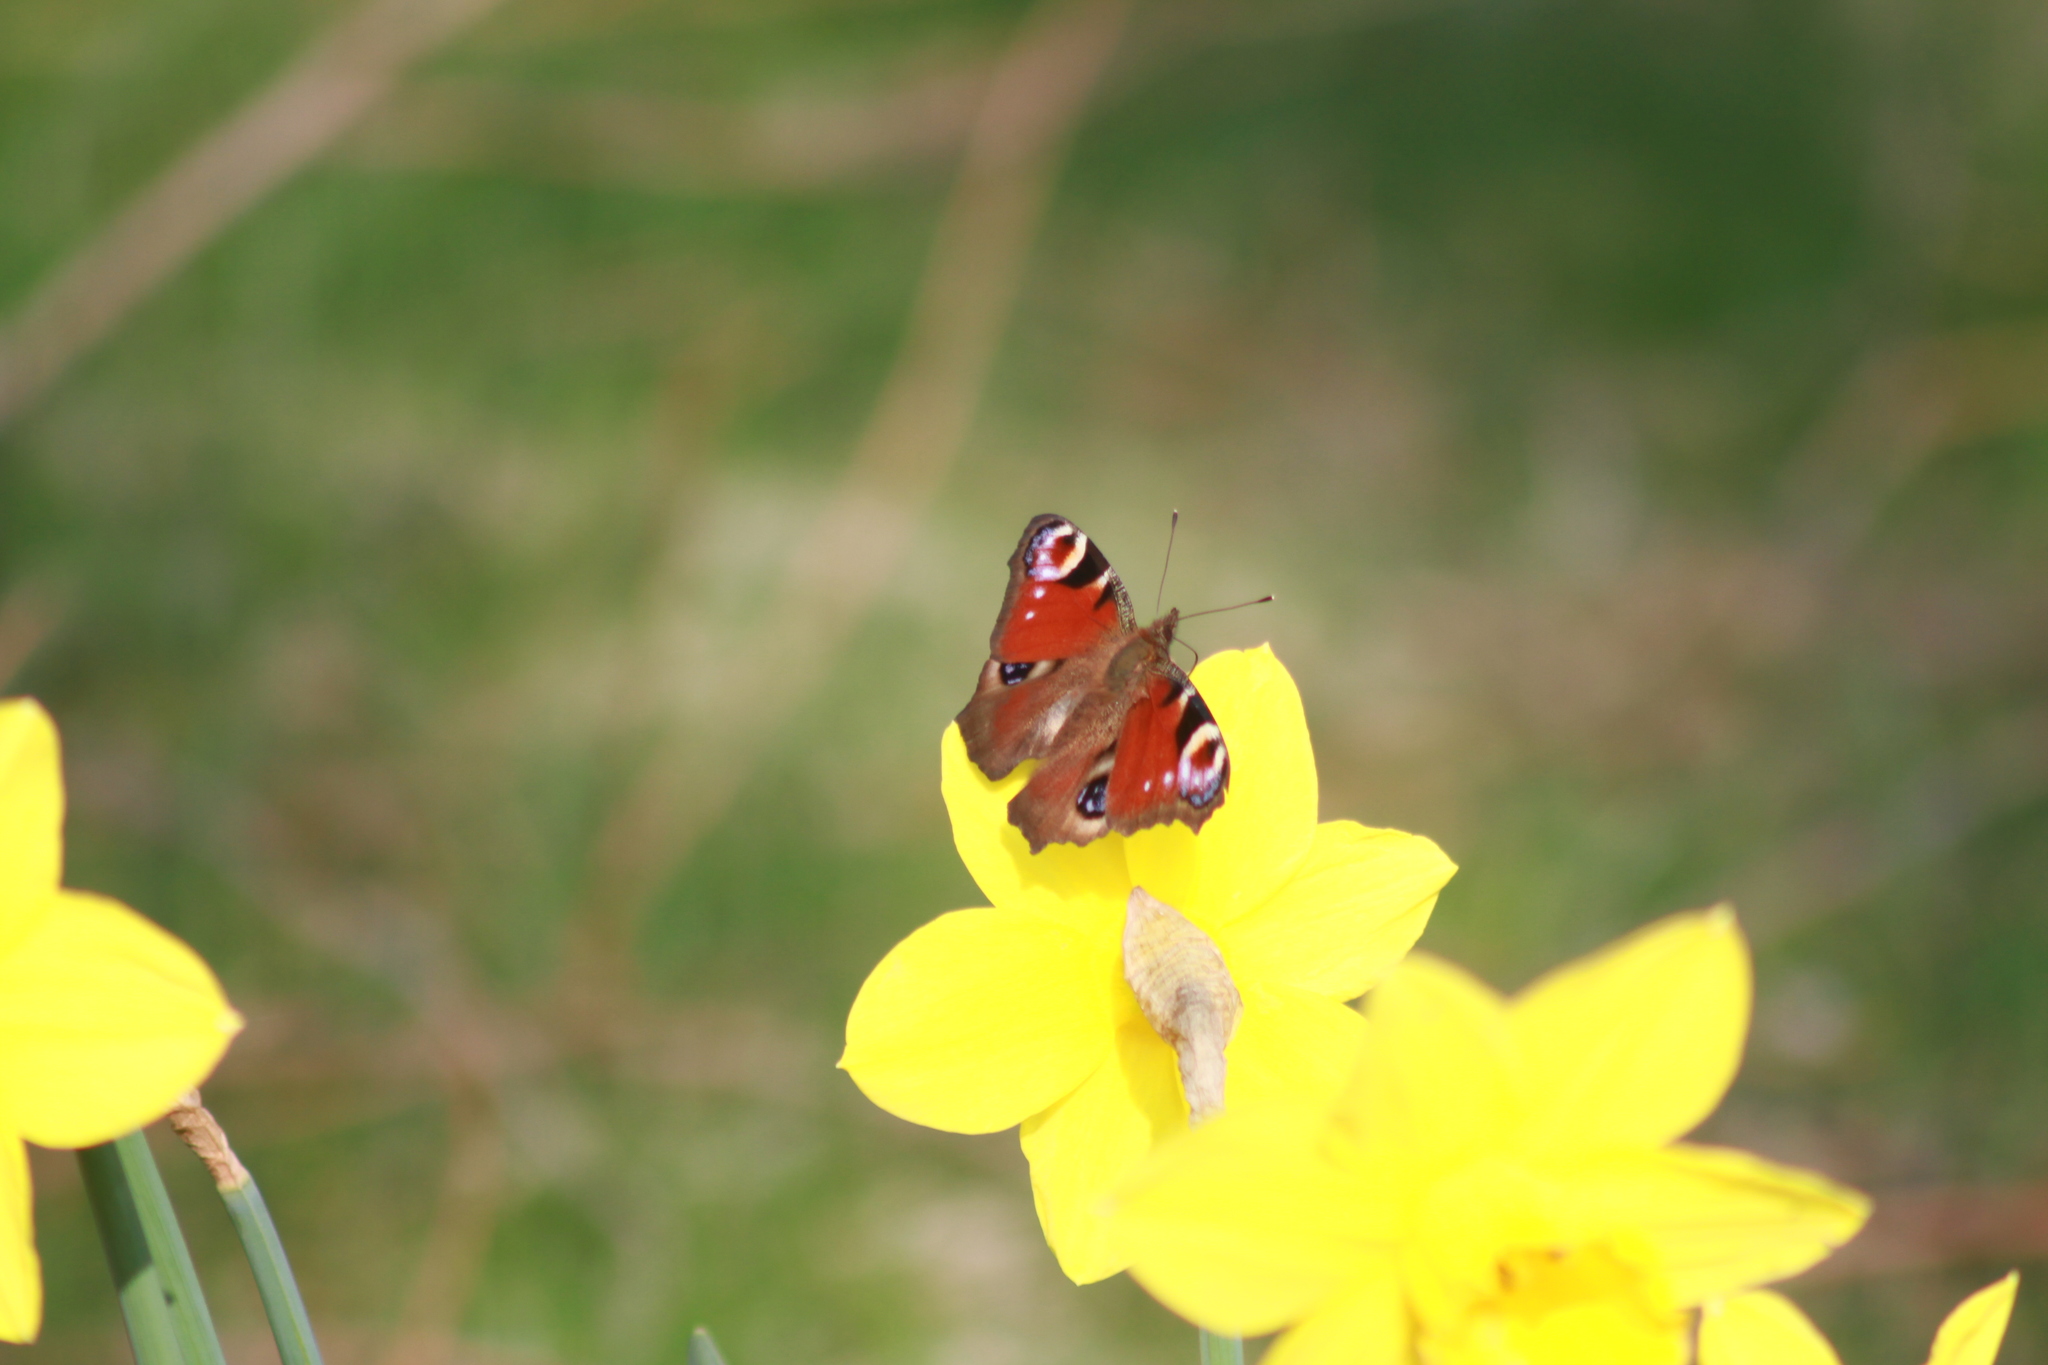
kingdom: Animalia
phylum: Arthropoda
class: Insecta
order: Lepidoptera
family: Nymphalidae
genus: Aglais
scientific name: Aglais io
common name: Peacock
